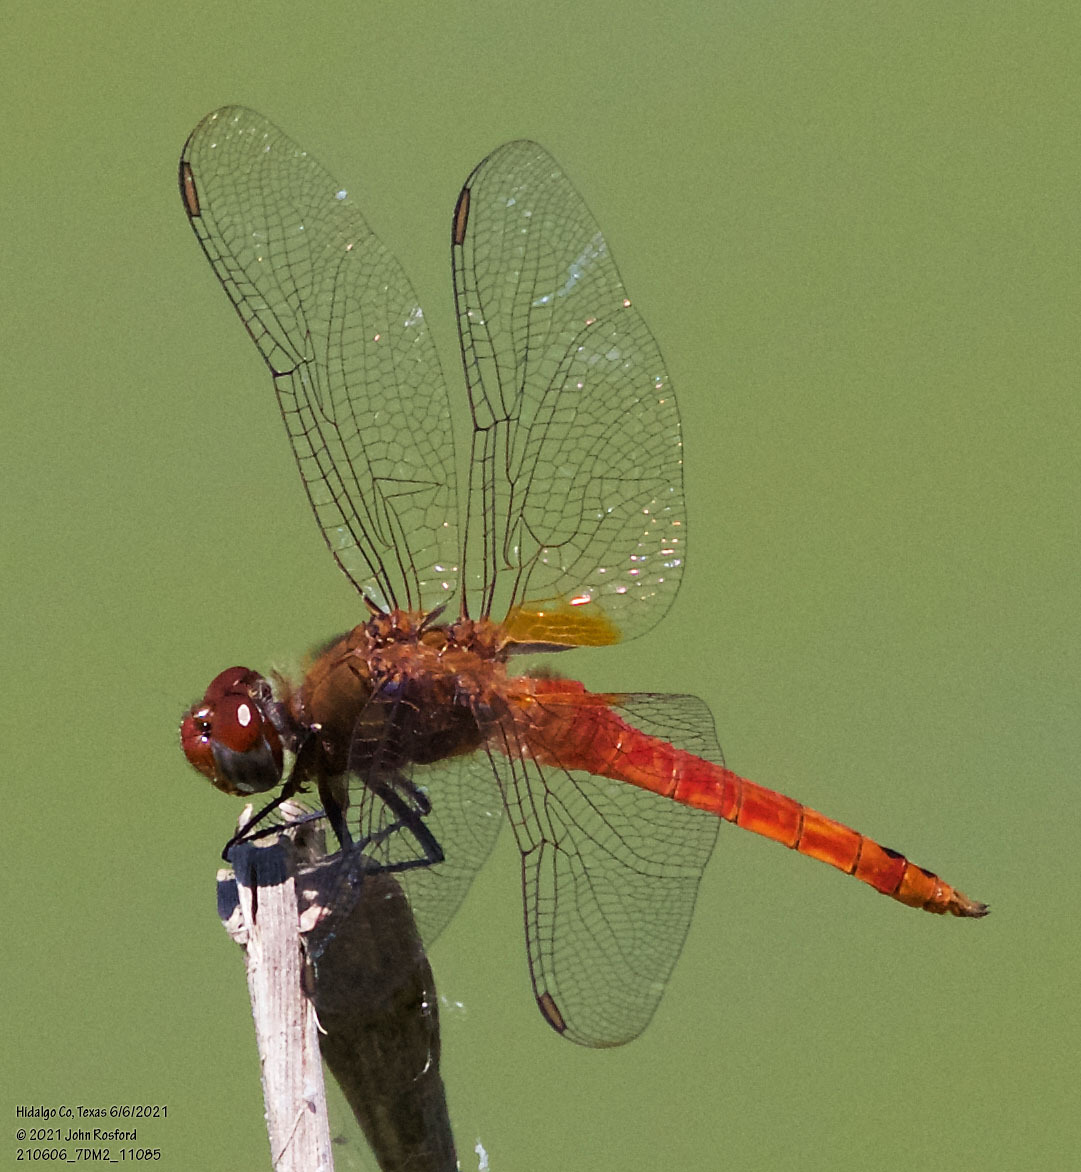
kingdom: Animalia
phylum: Arthropoda
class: Insecta
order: Odonata
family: Libellulidae
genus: Brachymesia
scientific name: Brachymesia furcata
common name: Red-taled pennant
